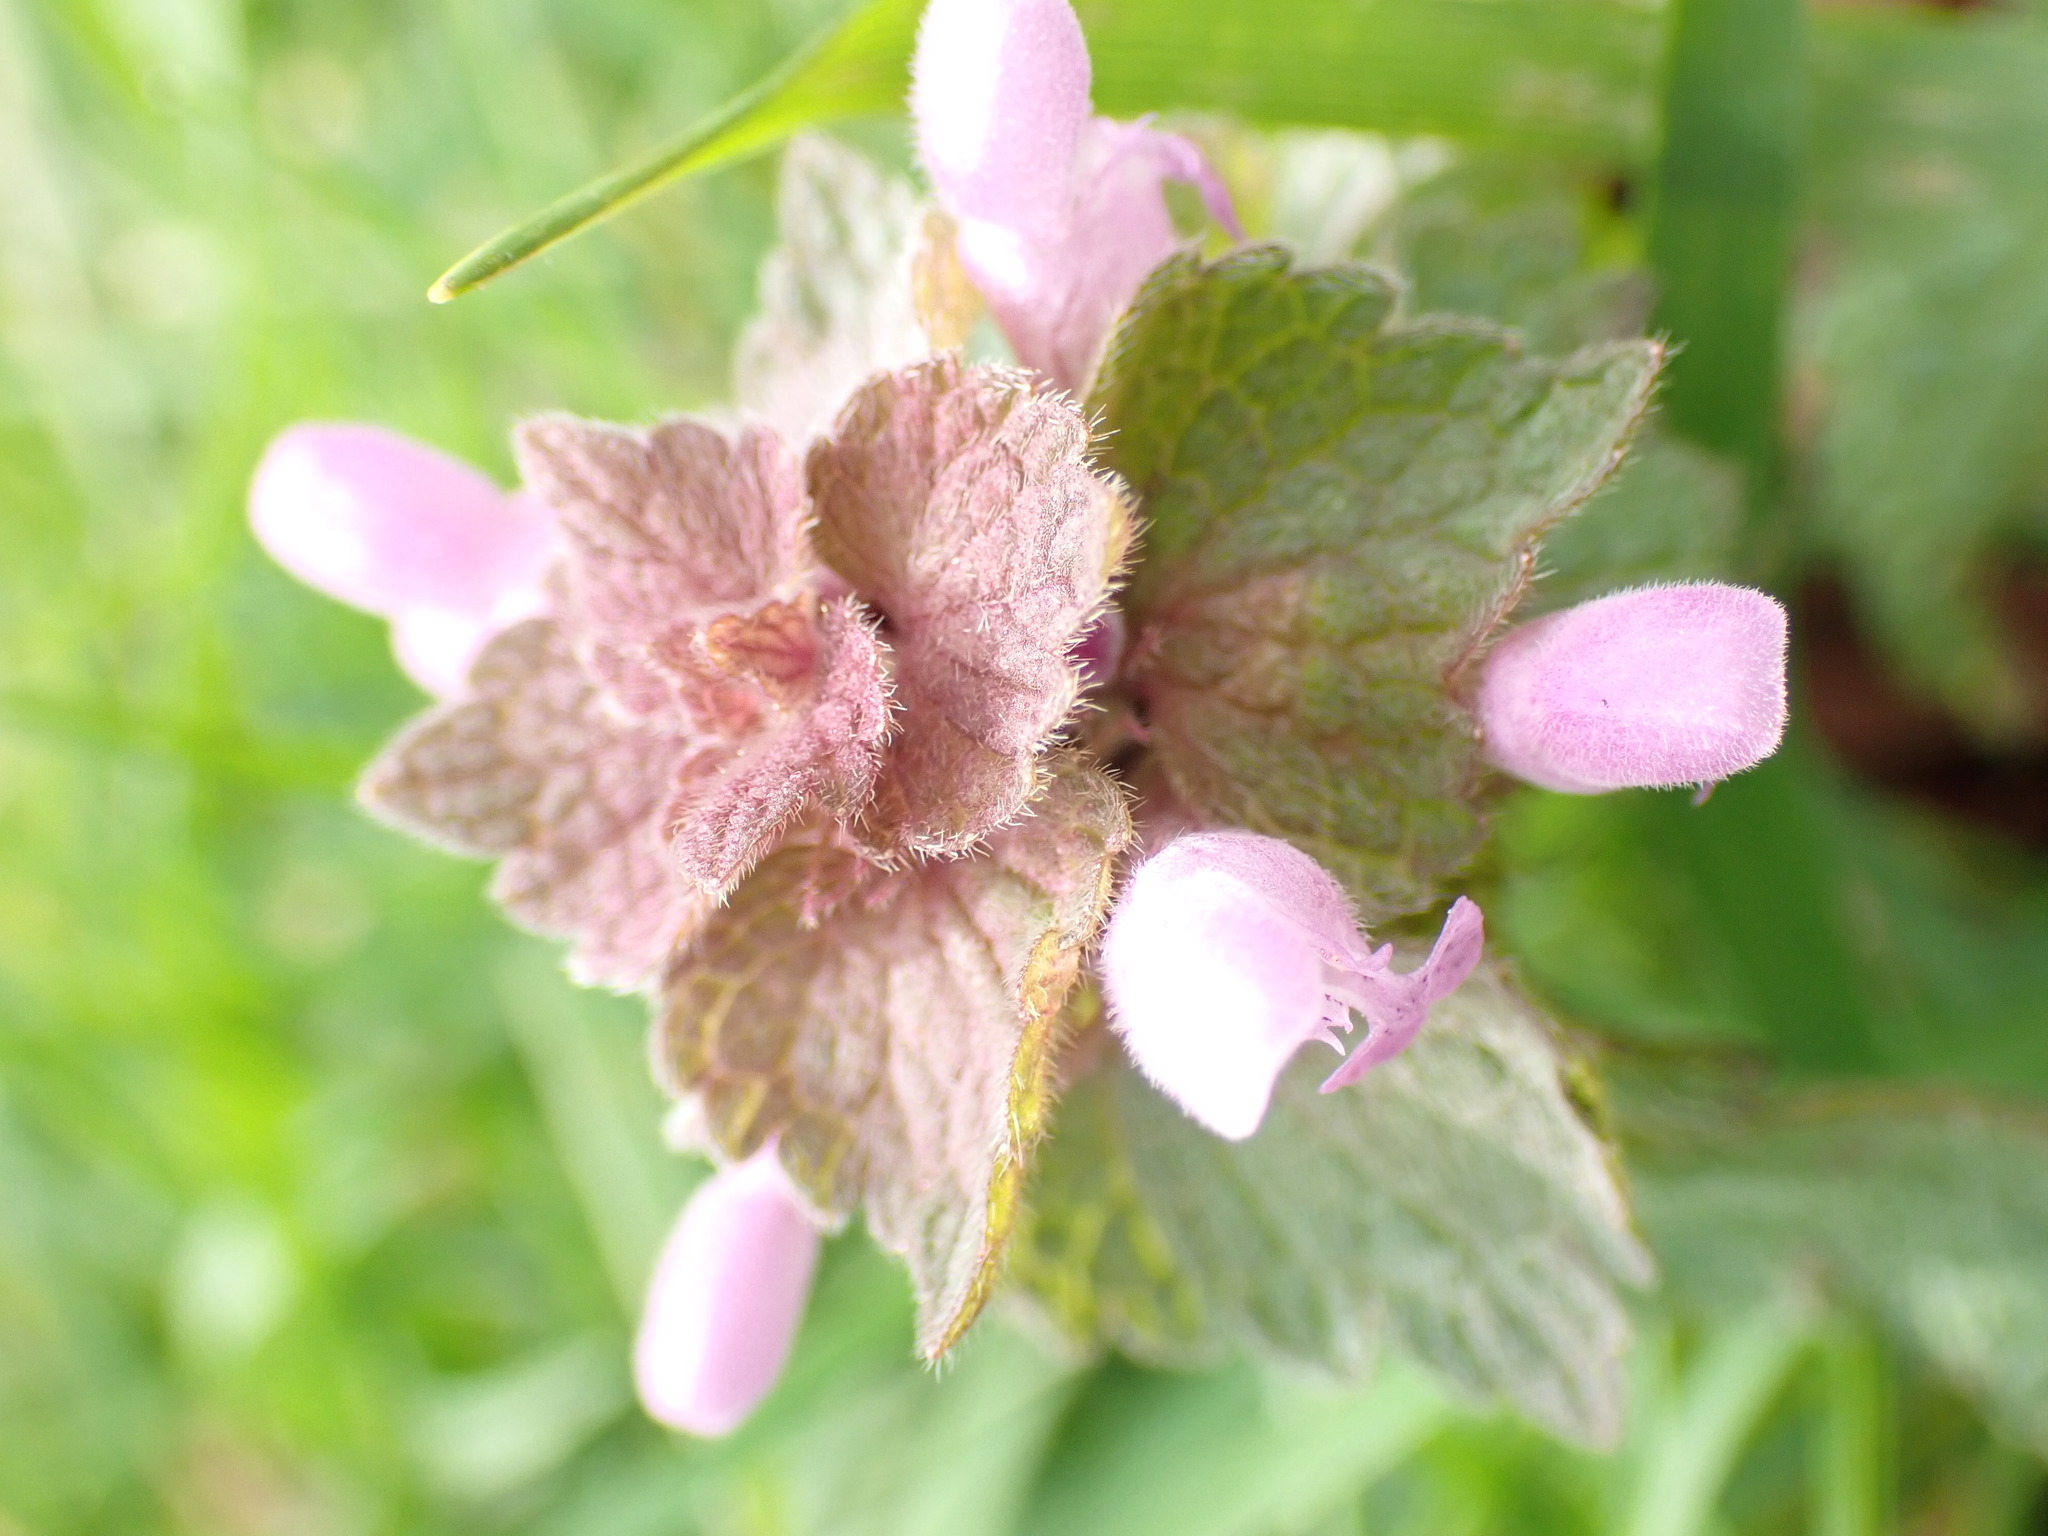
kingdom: Plantae
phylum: Tracheophyta
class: Magnoliopsida
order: Lamiales
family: Lamiaceae
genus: Lamium
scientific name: Lamium purpureum
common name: Red dead-nettle
